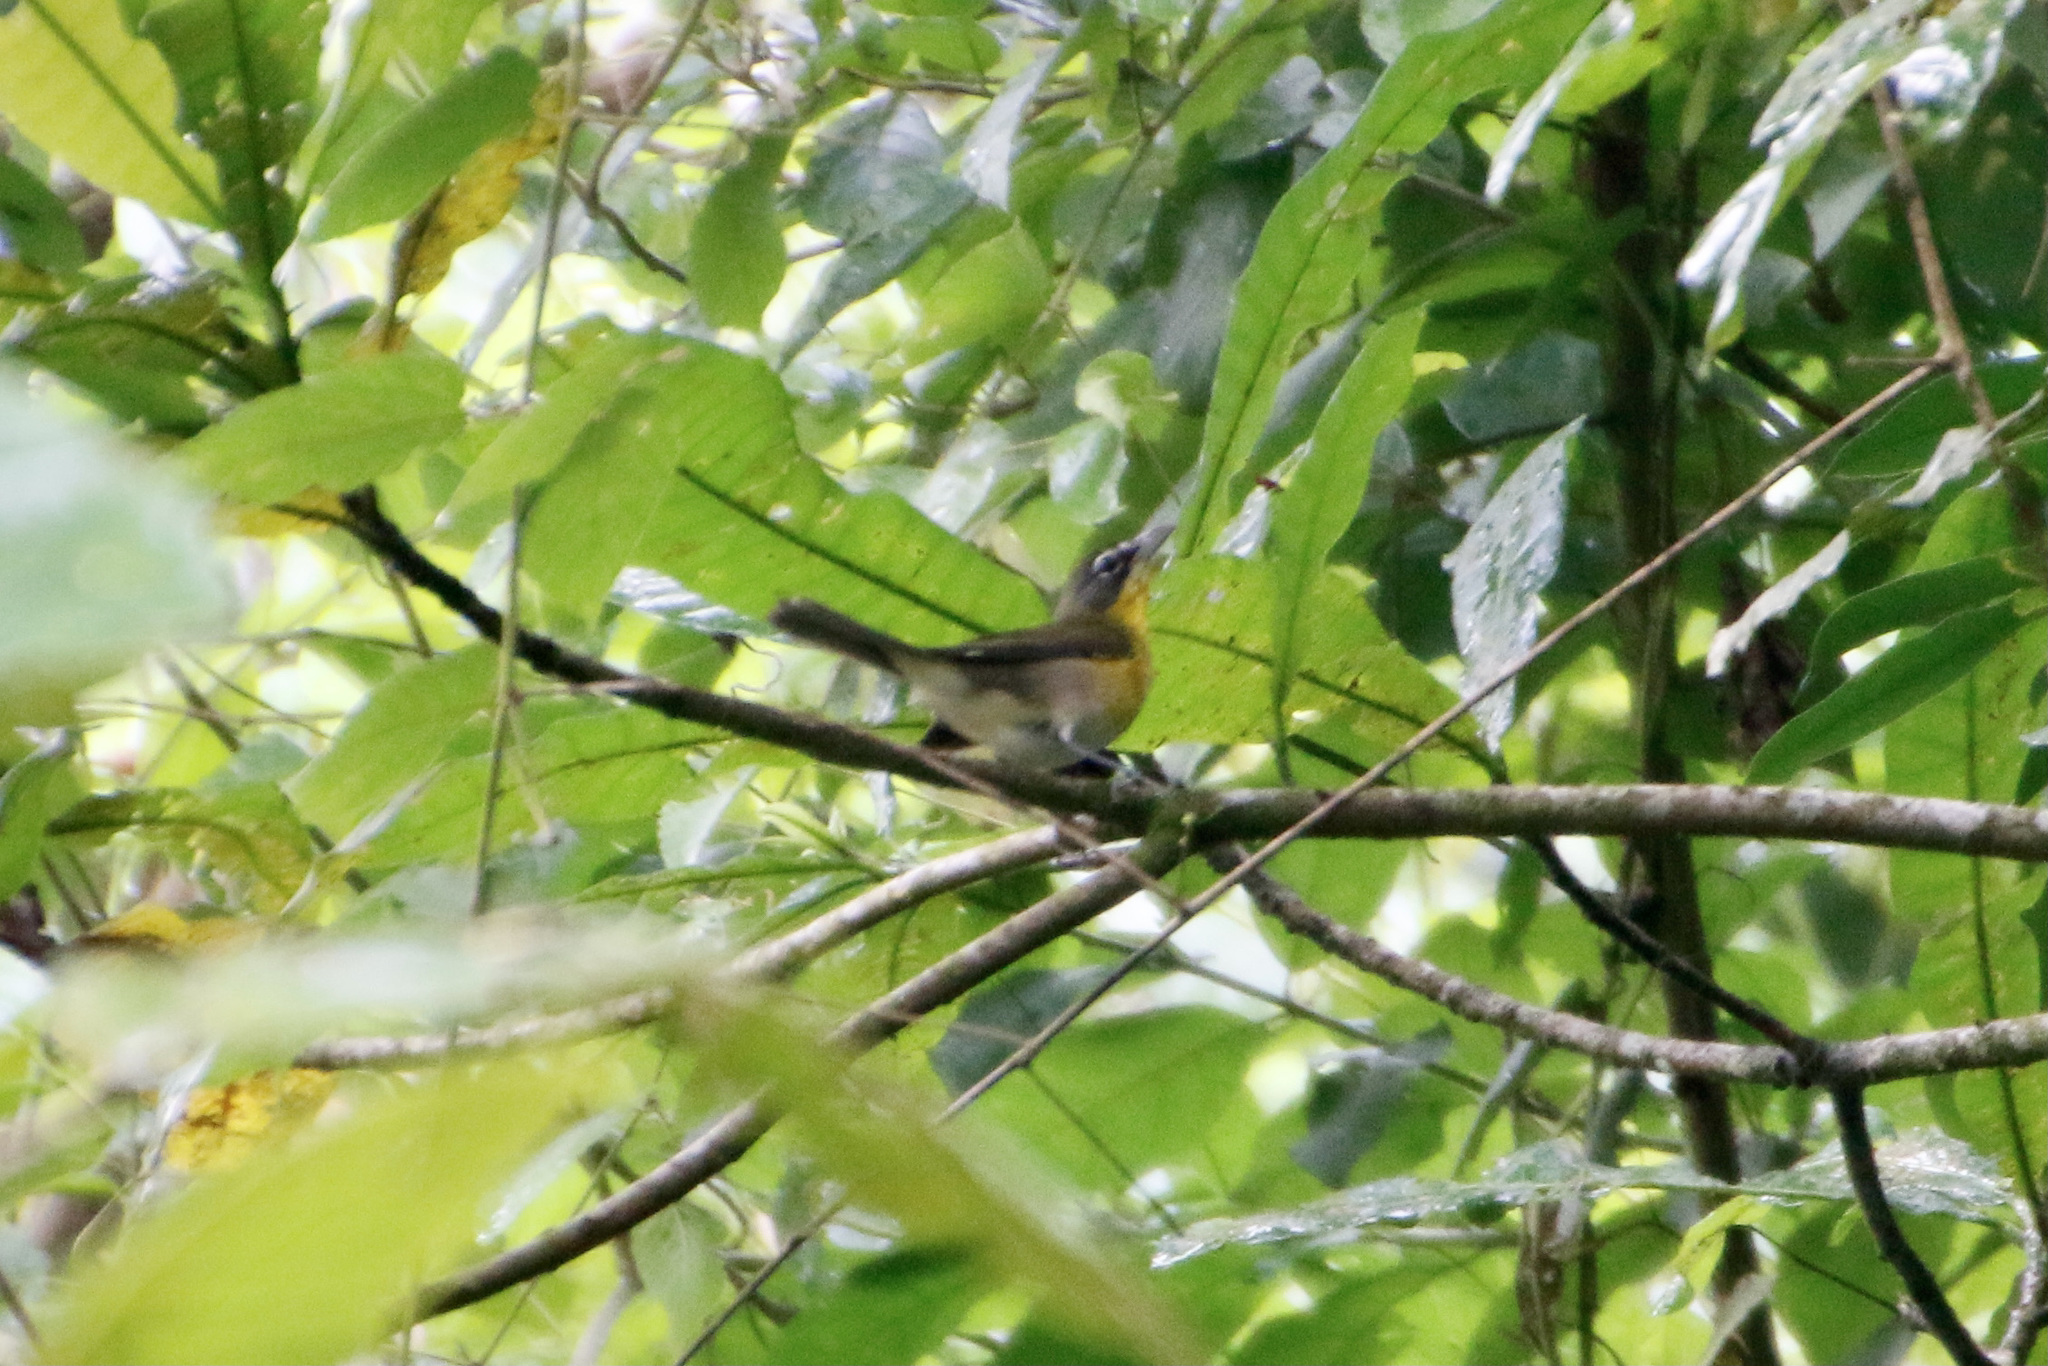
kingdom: Animalia
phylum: Chordata
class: Aves
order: Passeriformes
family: Parulidae
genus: Icteria
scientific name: Icteria virens
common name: Yellow-breasted chat
